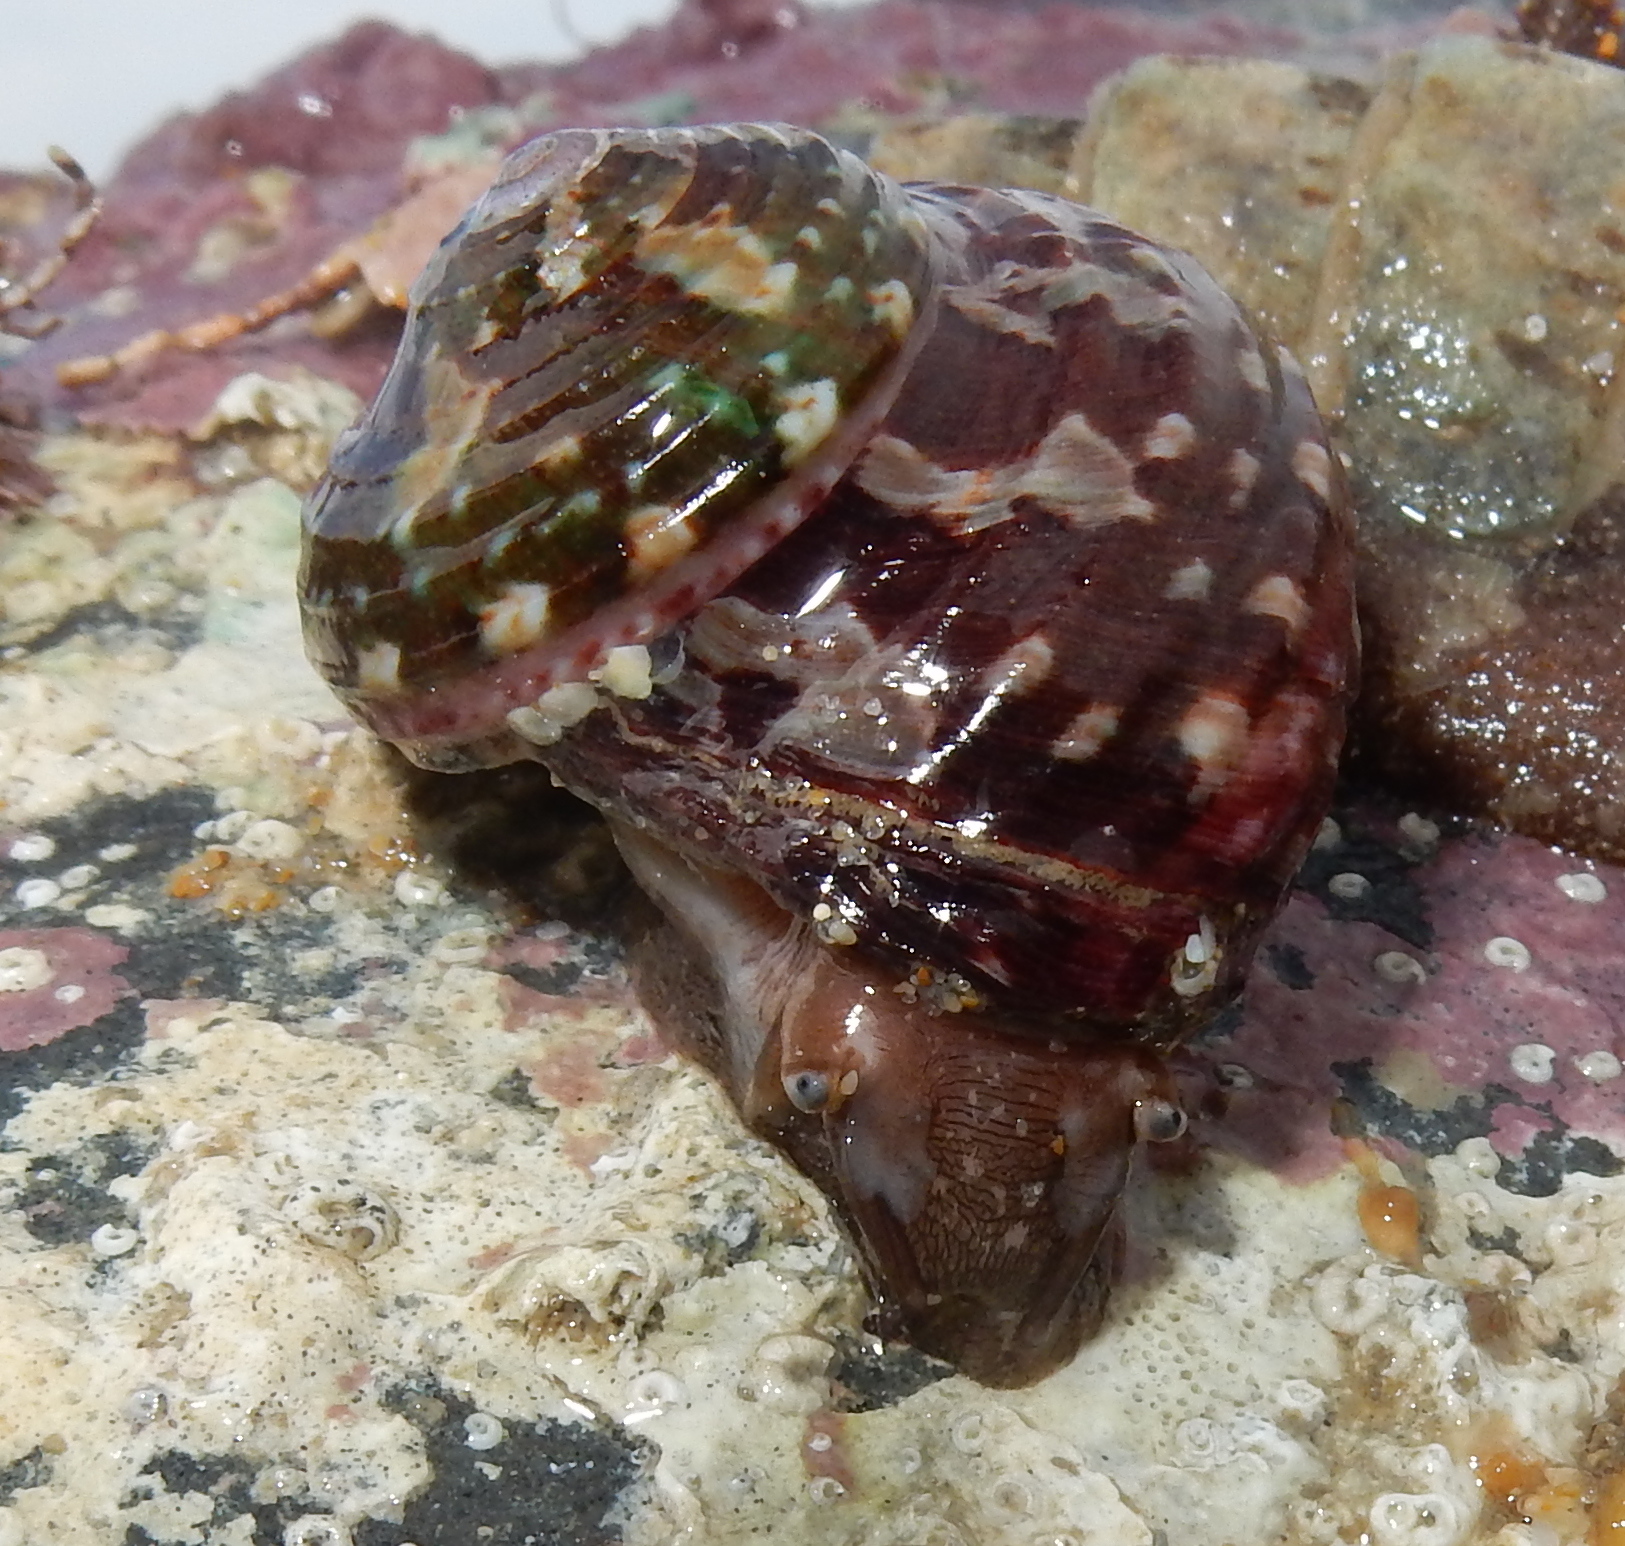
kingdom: Animalia
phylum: Mollusca
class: Gastropoda
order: Trochida
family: Turbinidae
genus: Turbo
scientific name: Turbo cidaris
